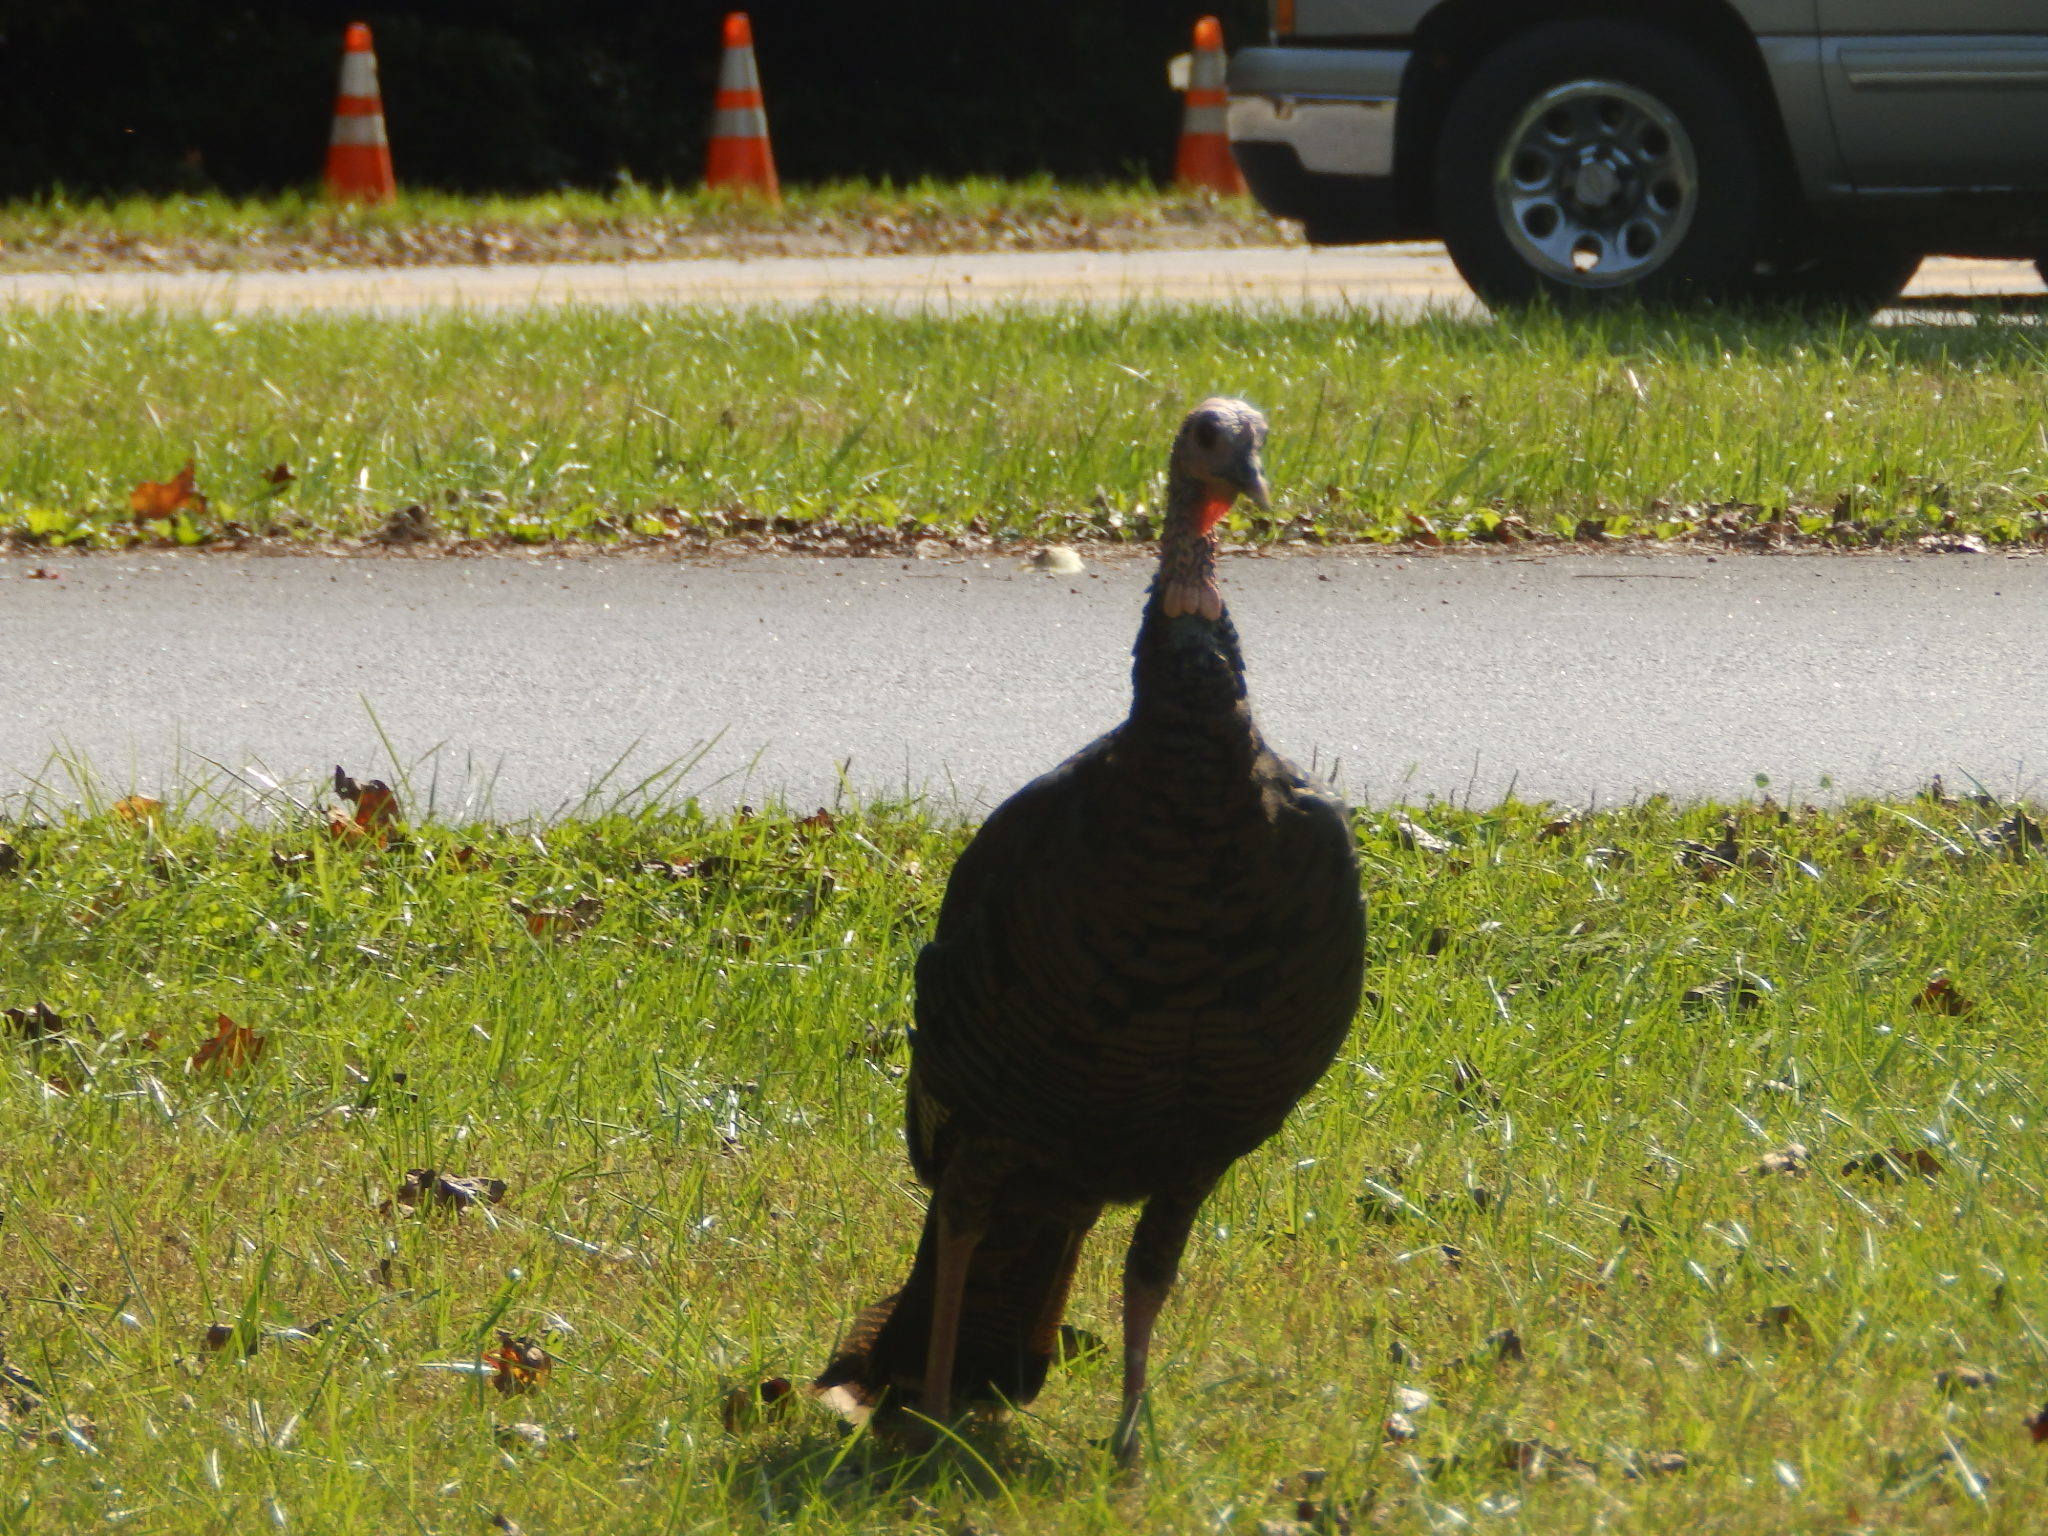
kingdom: Animalia
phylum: Chordata
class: Aves
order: Galliformes
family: Phasianidae
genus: Meleagris
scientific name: Meleagris gallopavo
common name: Wild turkey
